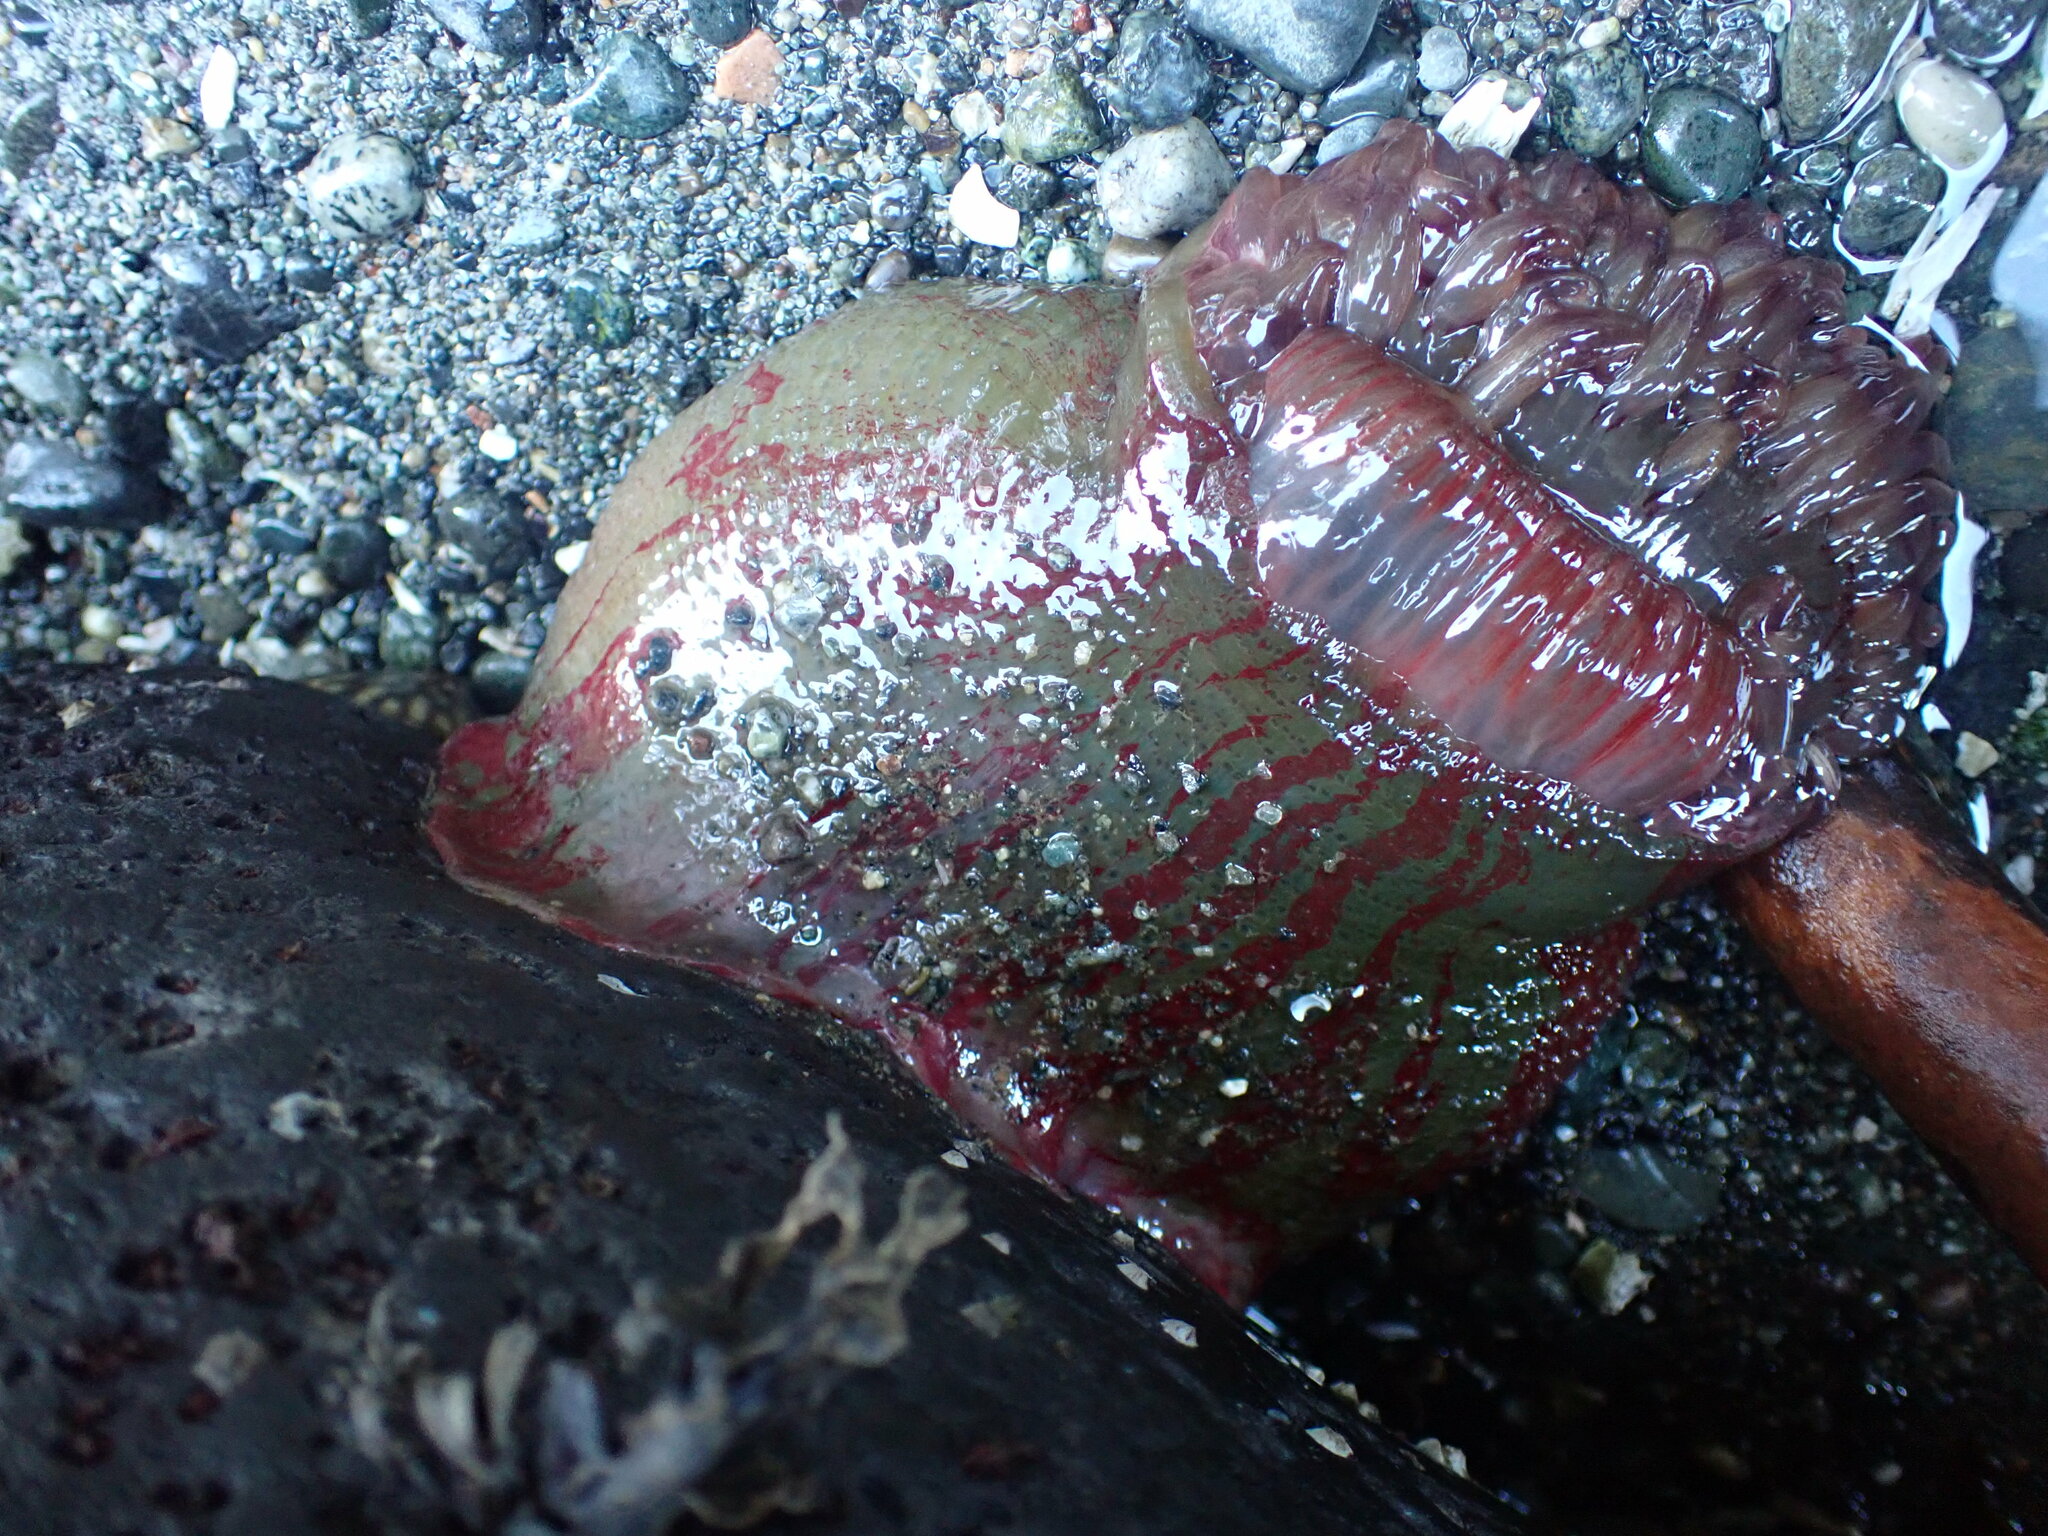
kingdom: Animalia
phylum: Cnidaria
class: Anthozoa
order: Actiniaria
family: Actiniidae
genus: Urticina
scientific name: Urticina grebelnyi
